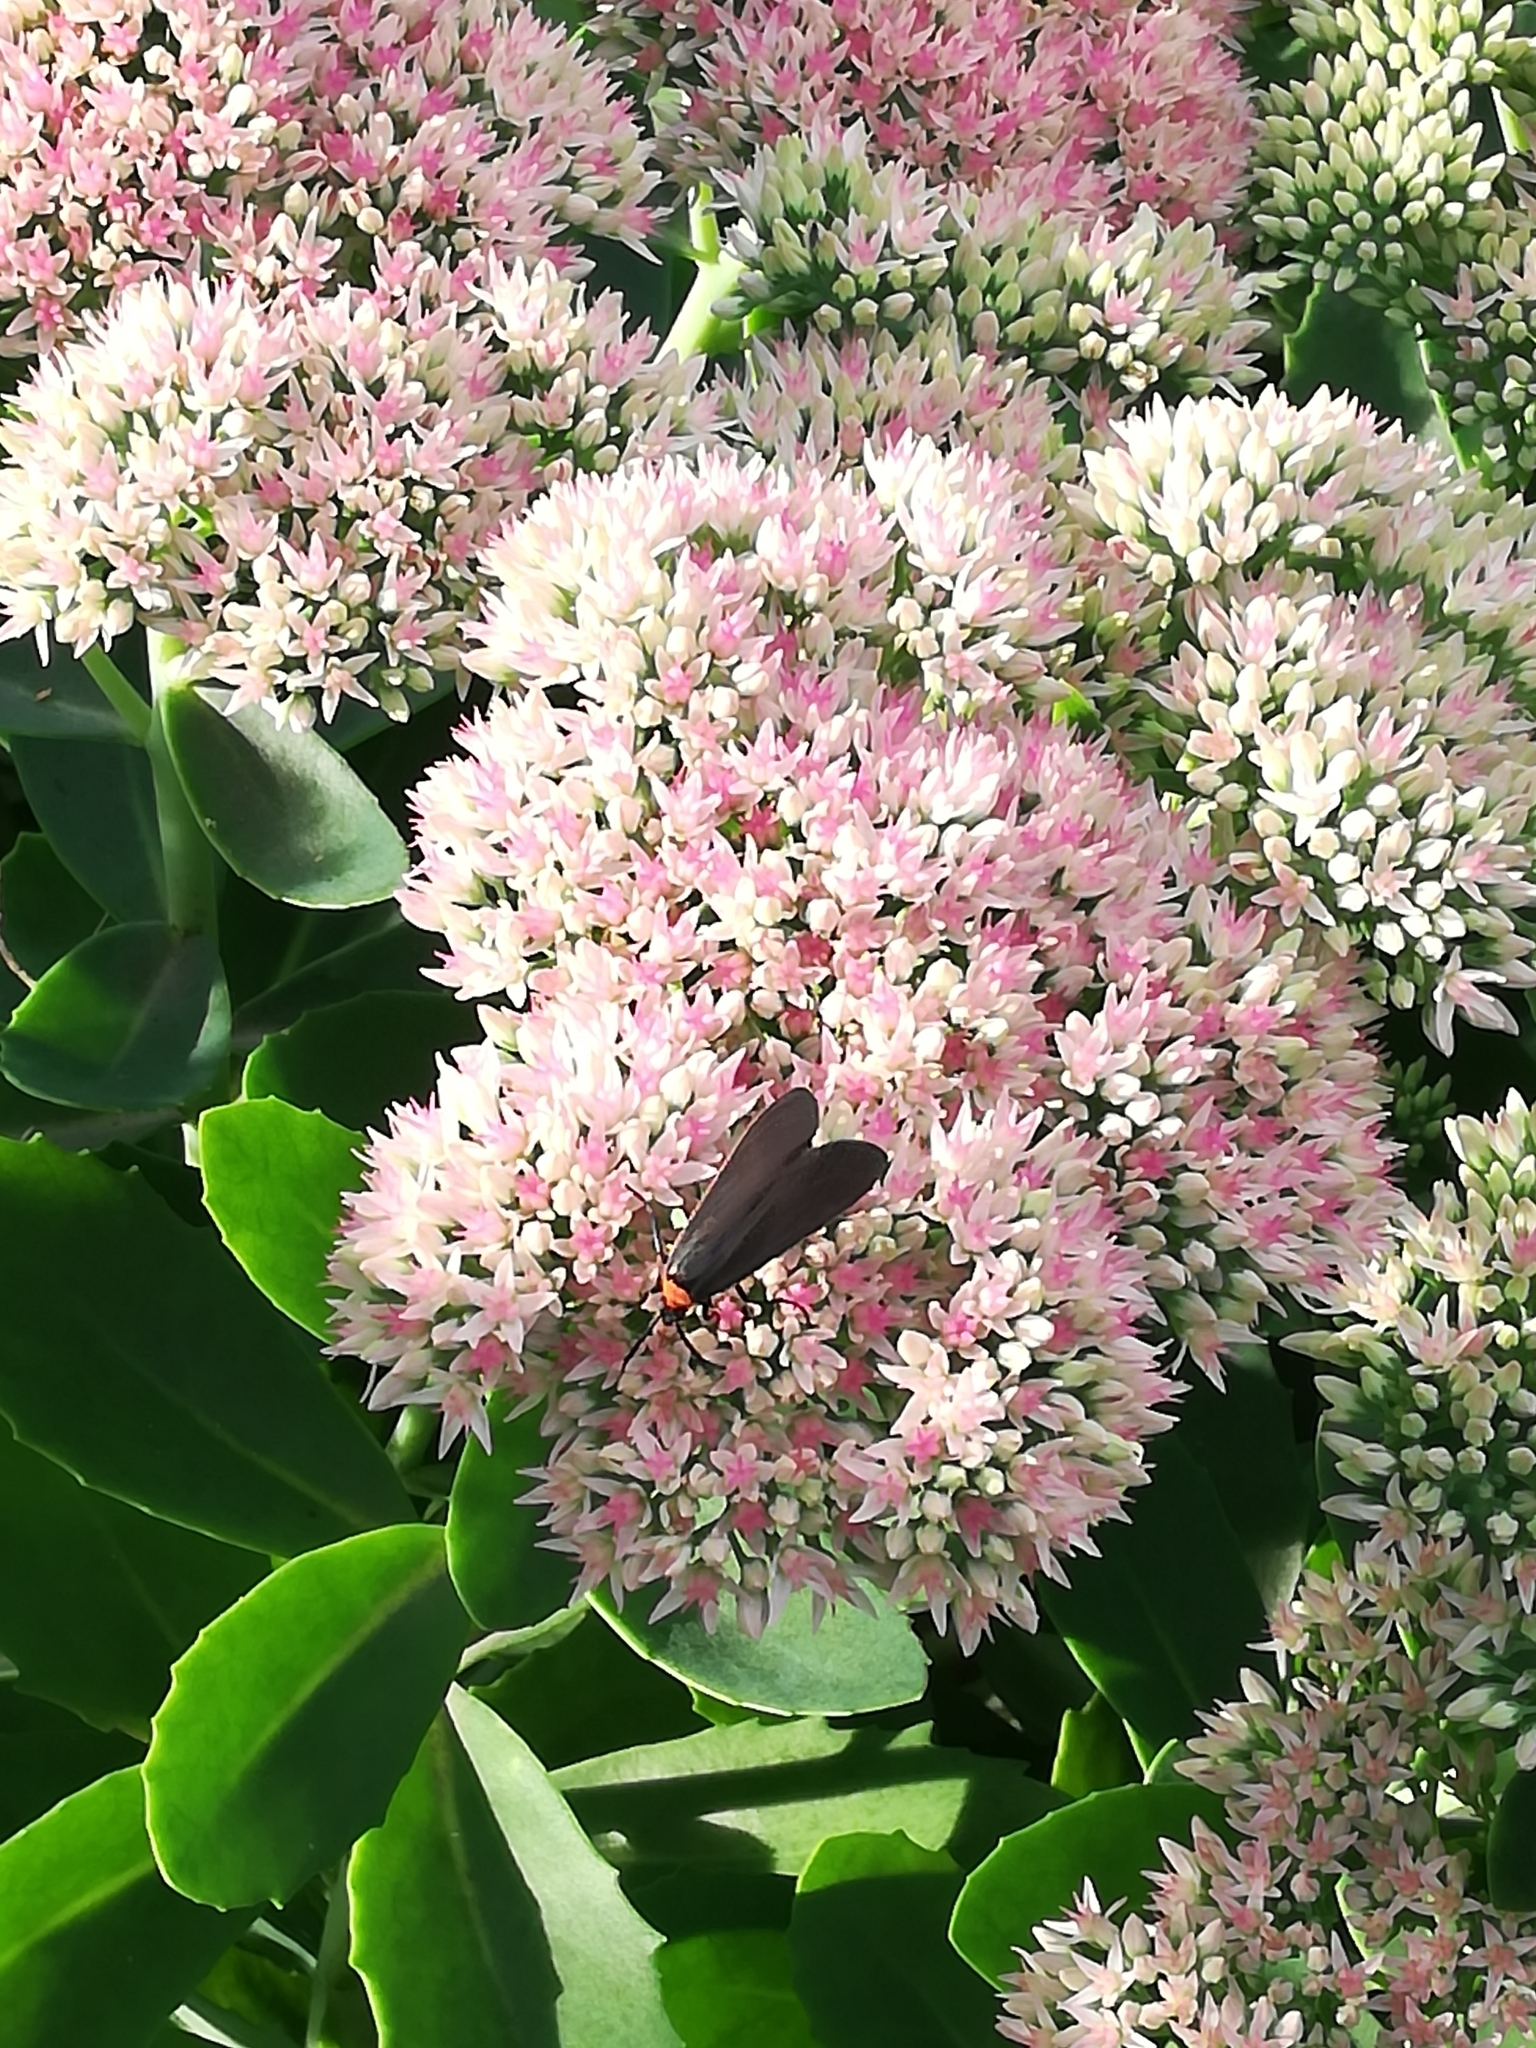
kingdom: Animalia
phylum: Arthropoda
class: Insecta
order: Lepidoptera
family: Erebidae
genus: Cisseps
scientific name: Cisseps fulvicollis
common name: Yellow-collared scape moth
